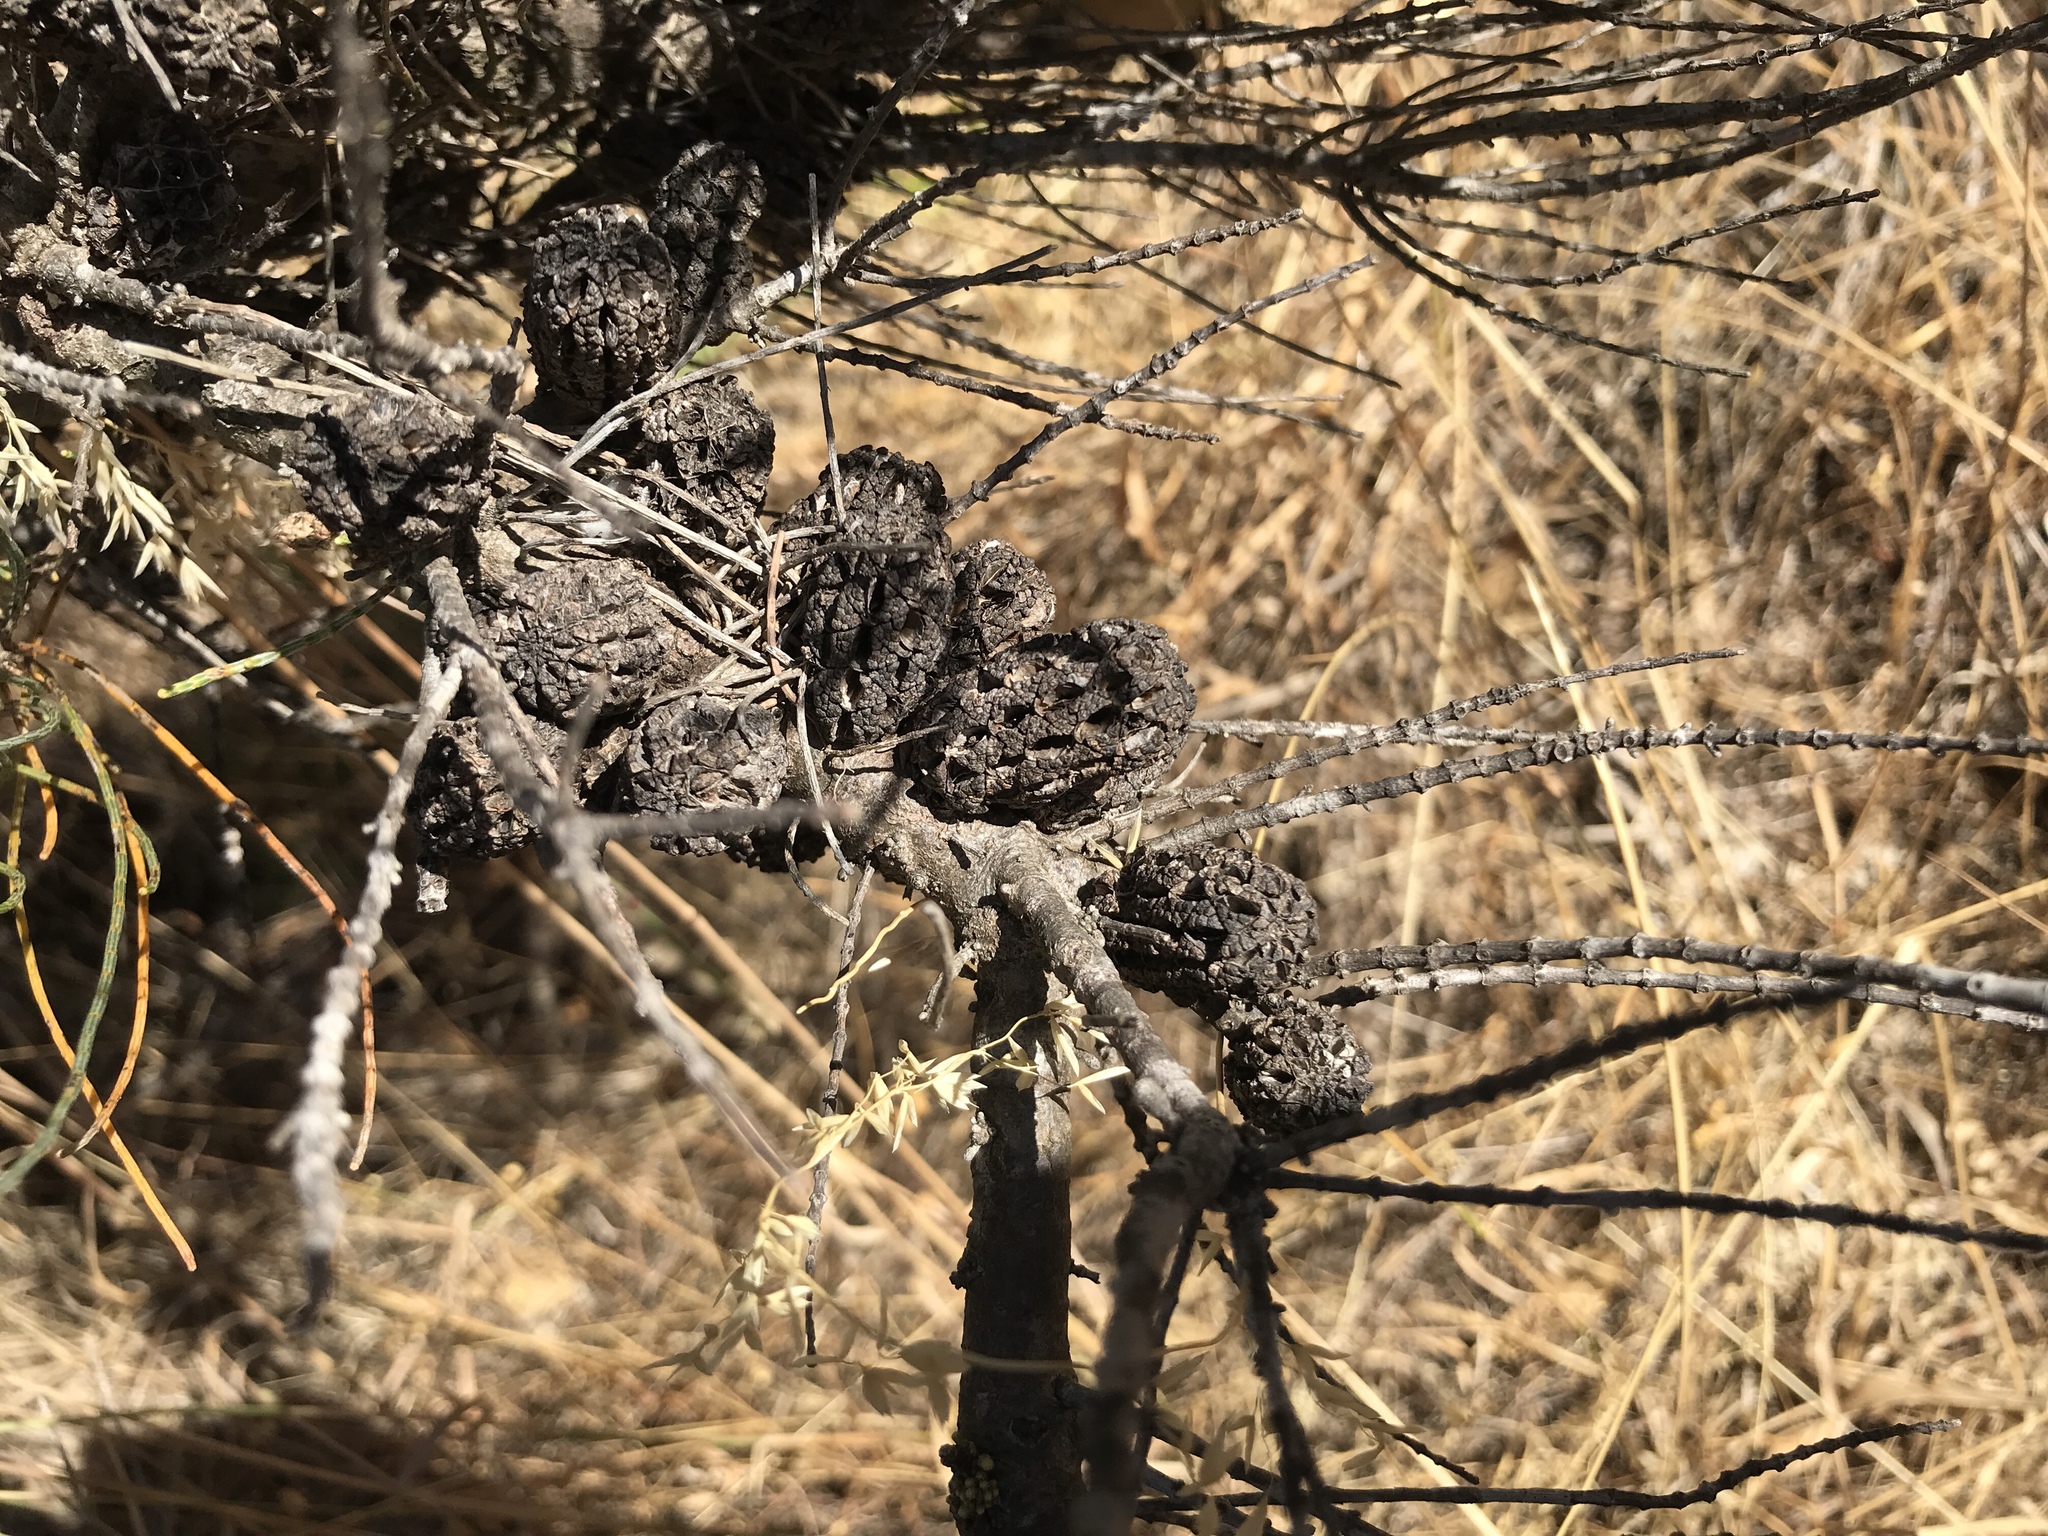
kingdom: Plantae
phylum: Tracheophyta
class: Magnoliopsida
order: Fagales
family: Casuarinaceae
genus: Allocasuarina
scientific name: Allocasuarina humilis
